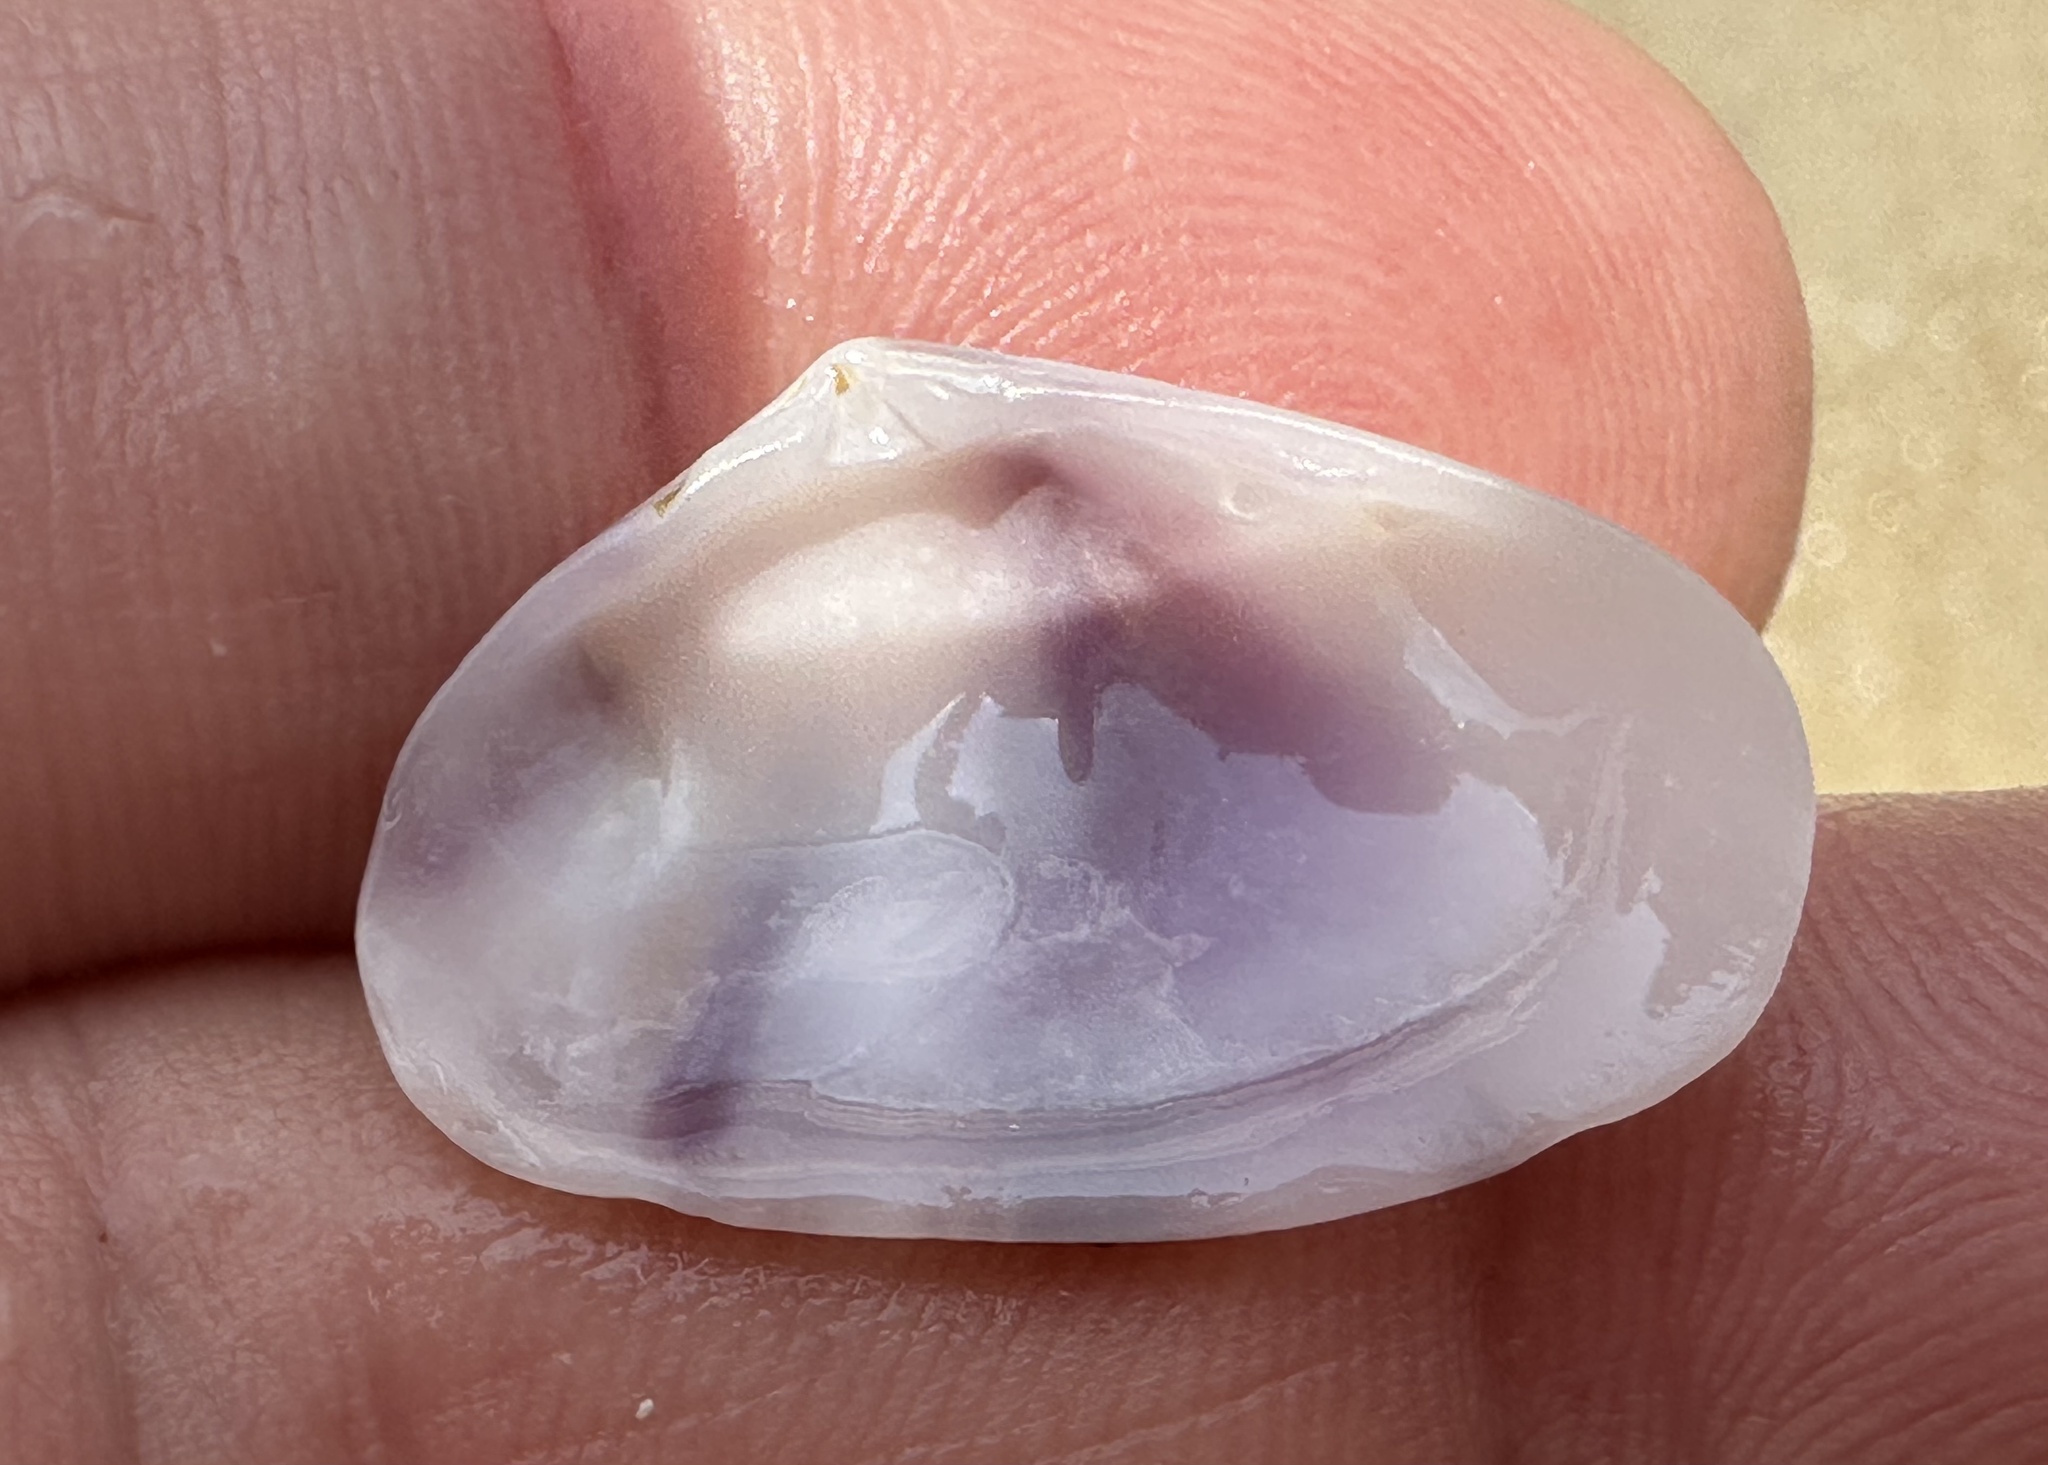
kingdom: Animalia
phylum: Mollusca
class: Bivalvia
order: Cardiida
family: Donacidae
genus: Donax
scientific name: Donax faba
